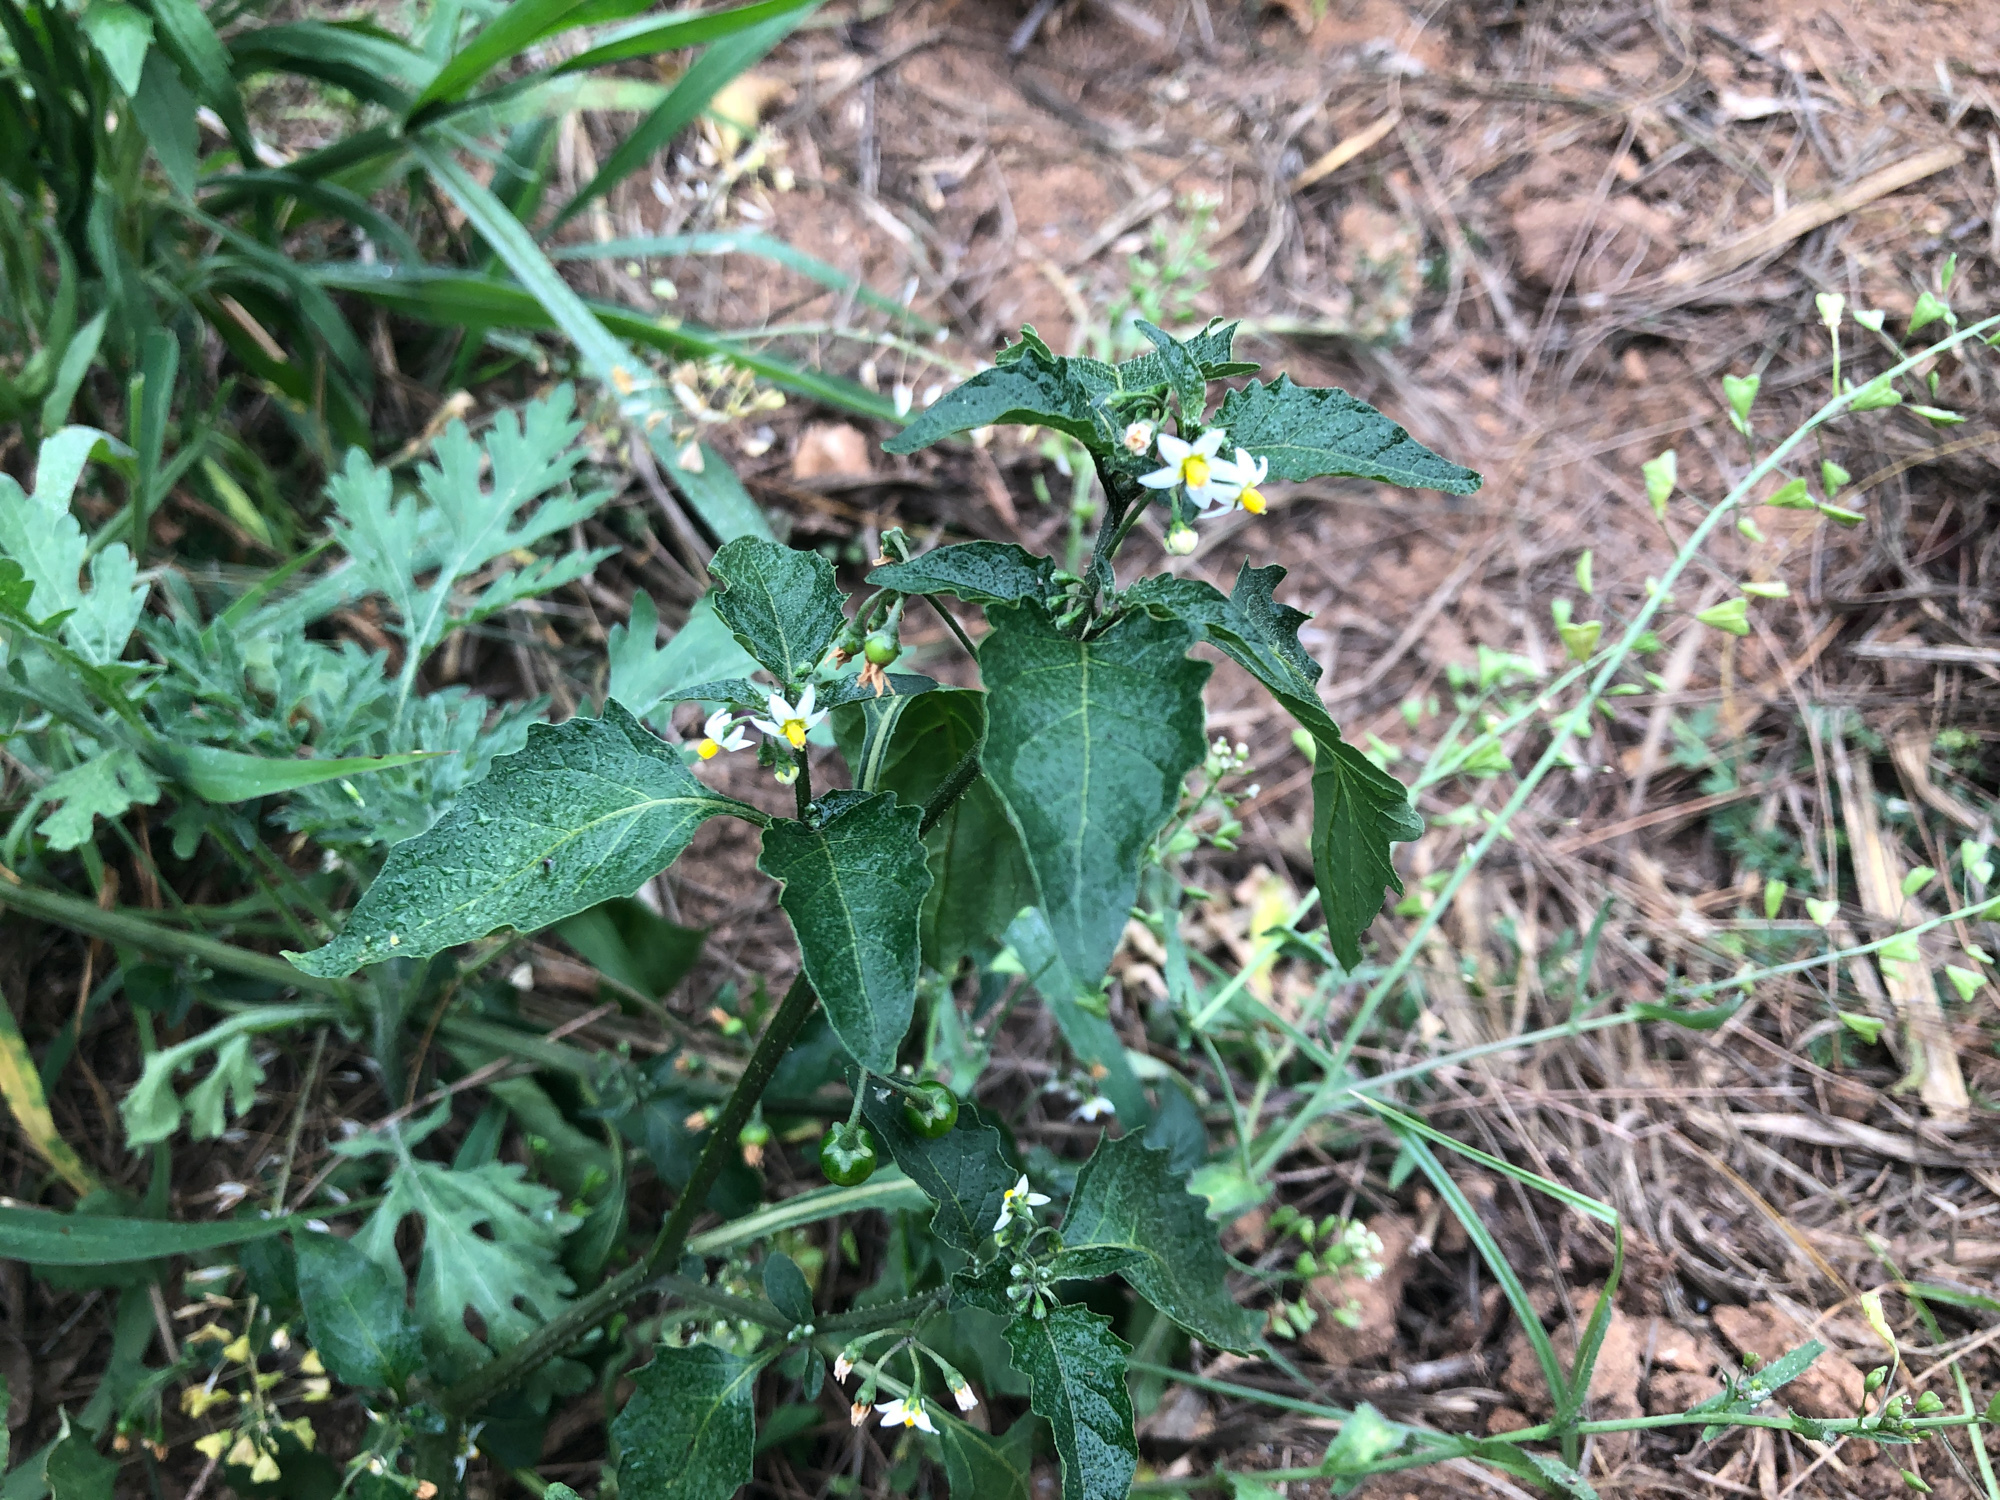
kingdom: Plantae
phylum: Tracheophyta
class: Magnoliopsida
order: Solanales
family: Solanaceae
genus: Solanum
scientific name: Solanum nigrum
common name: Black nightshade
